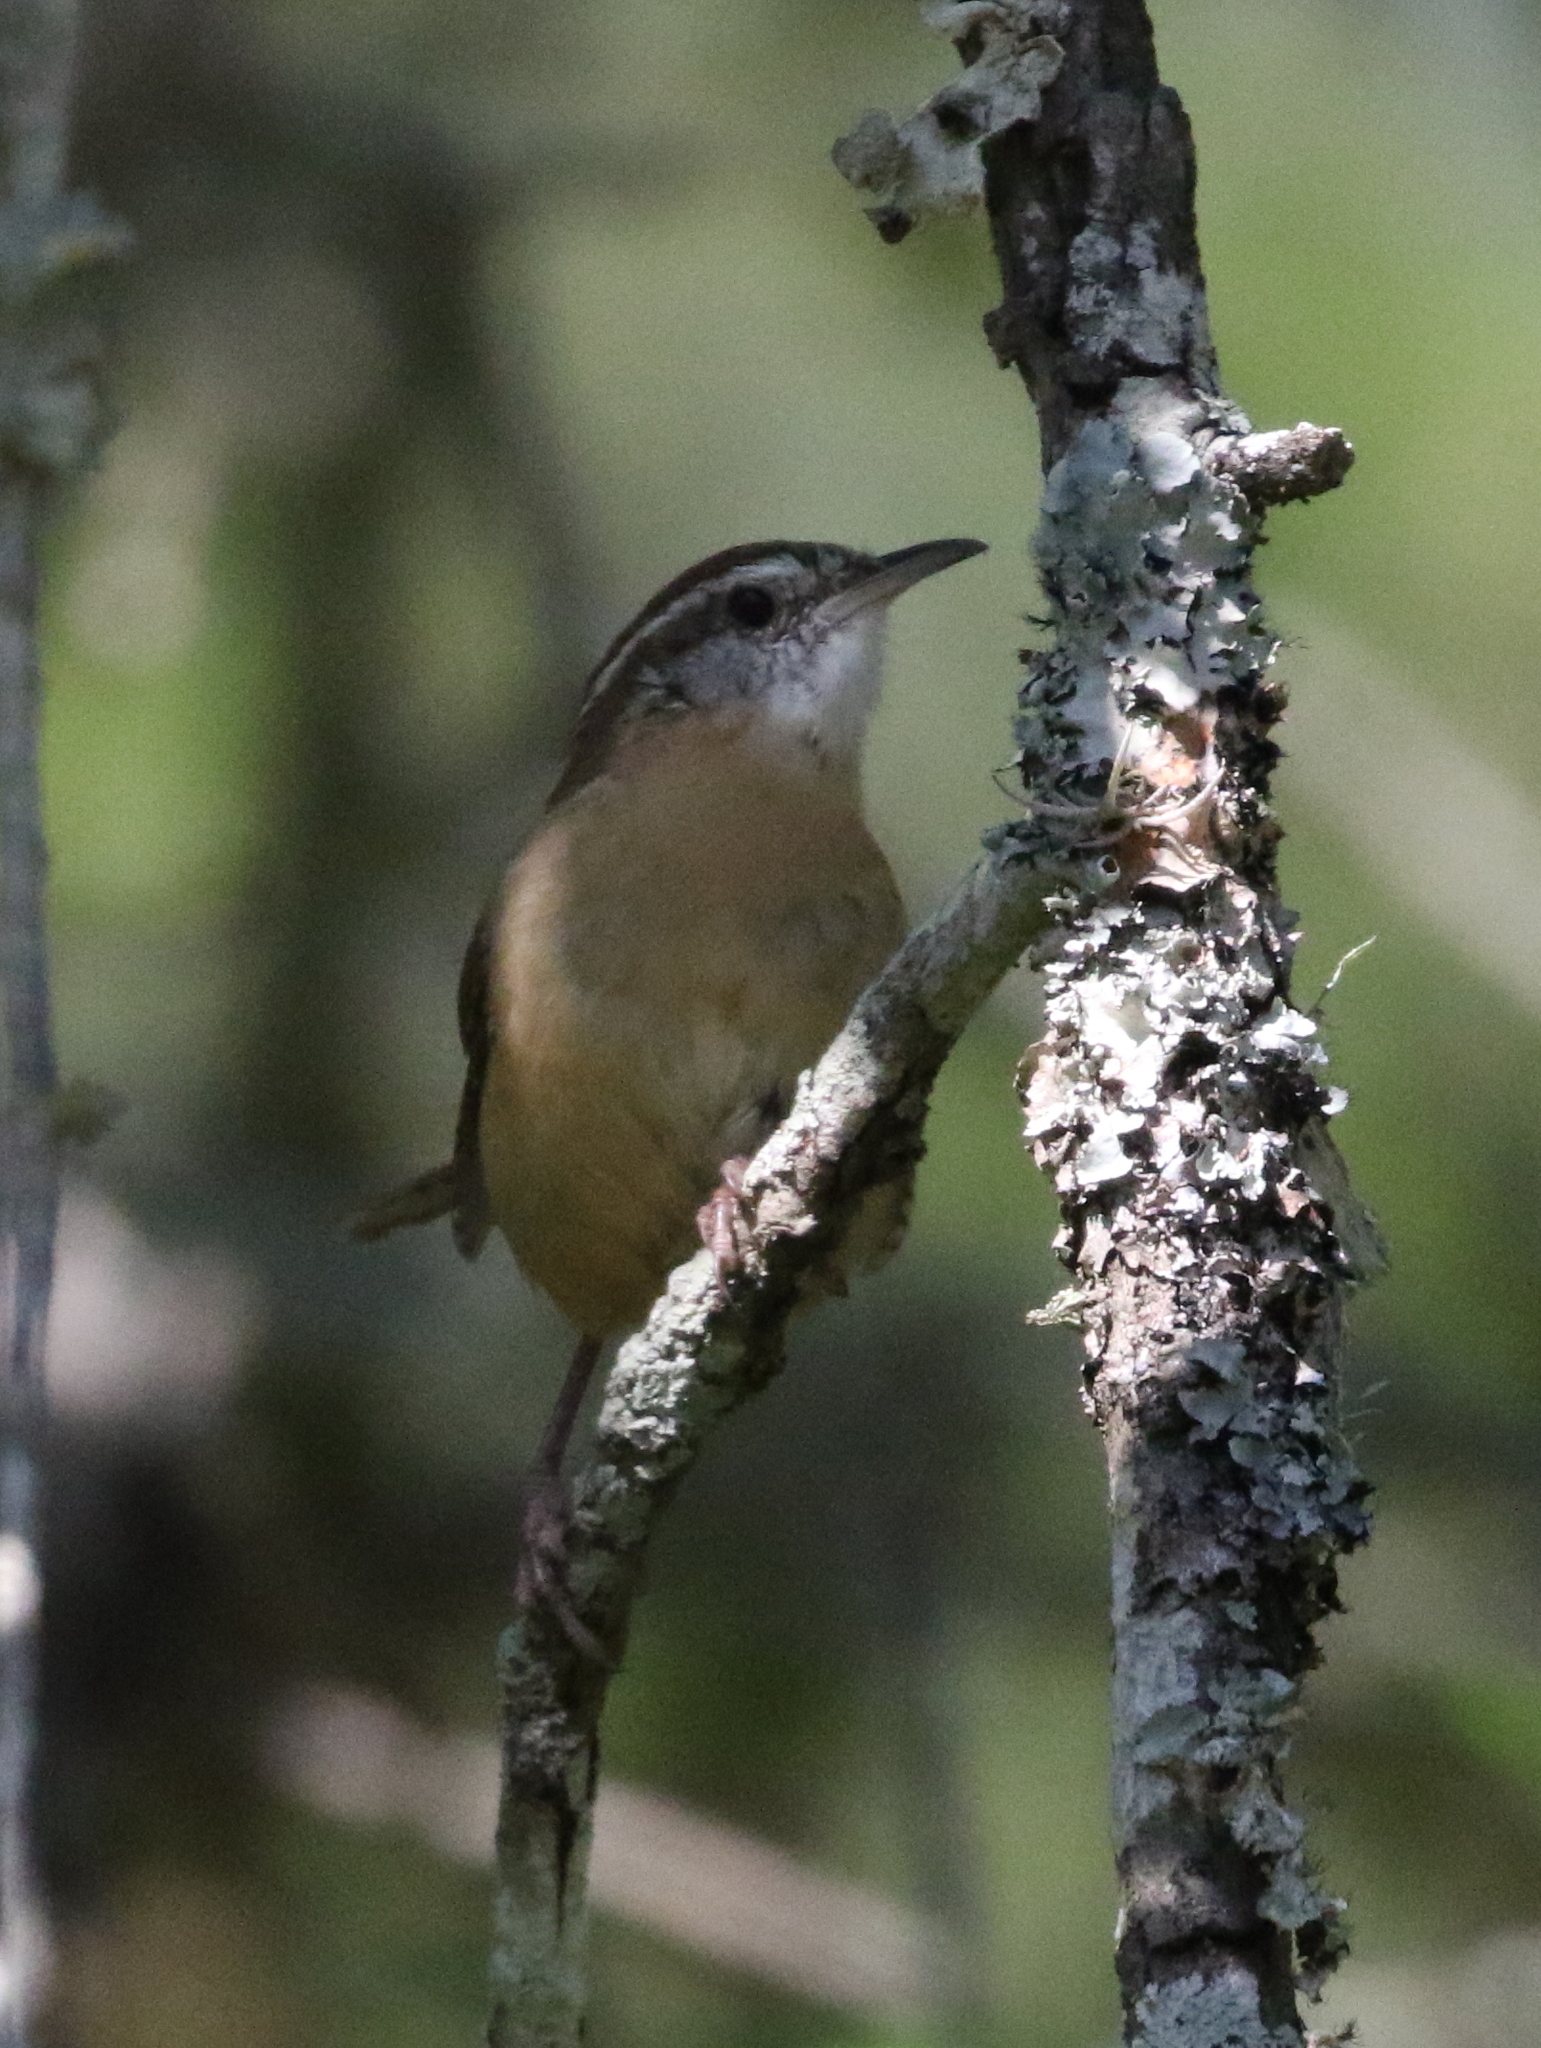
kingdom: Animalia
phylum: Chordata
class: Aves
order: Passeriformes
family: Troglodytidae
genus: Thryothorus
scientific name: Thryothorus ludovicianus
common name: Carolina wren
